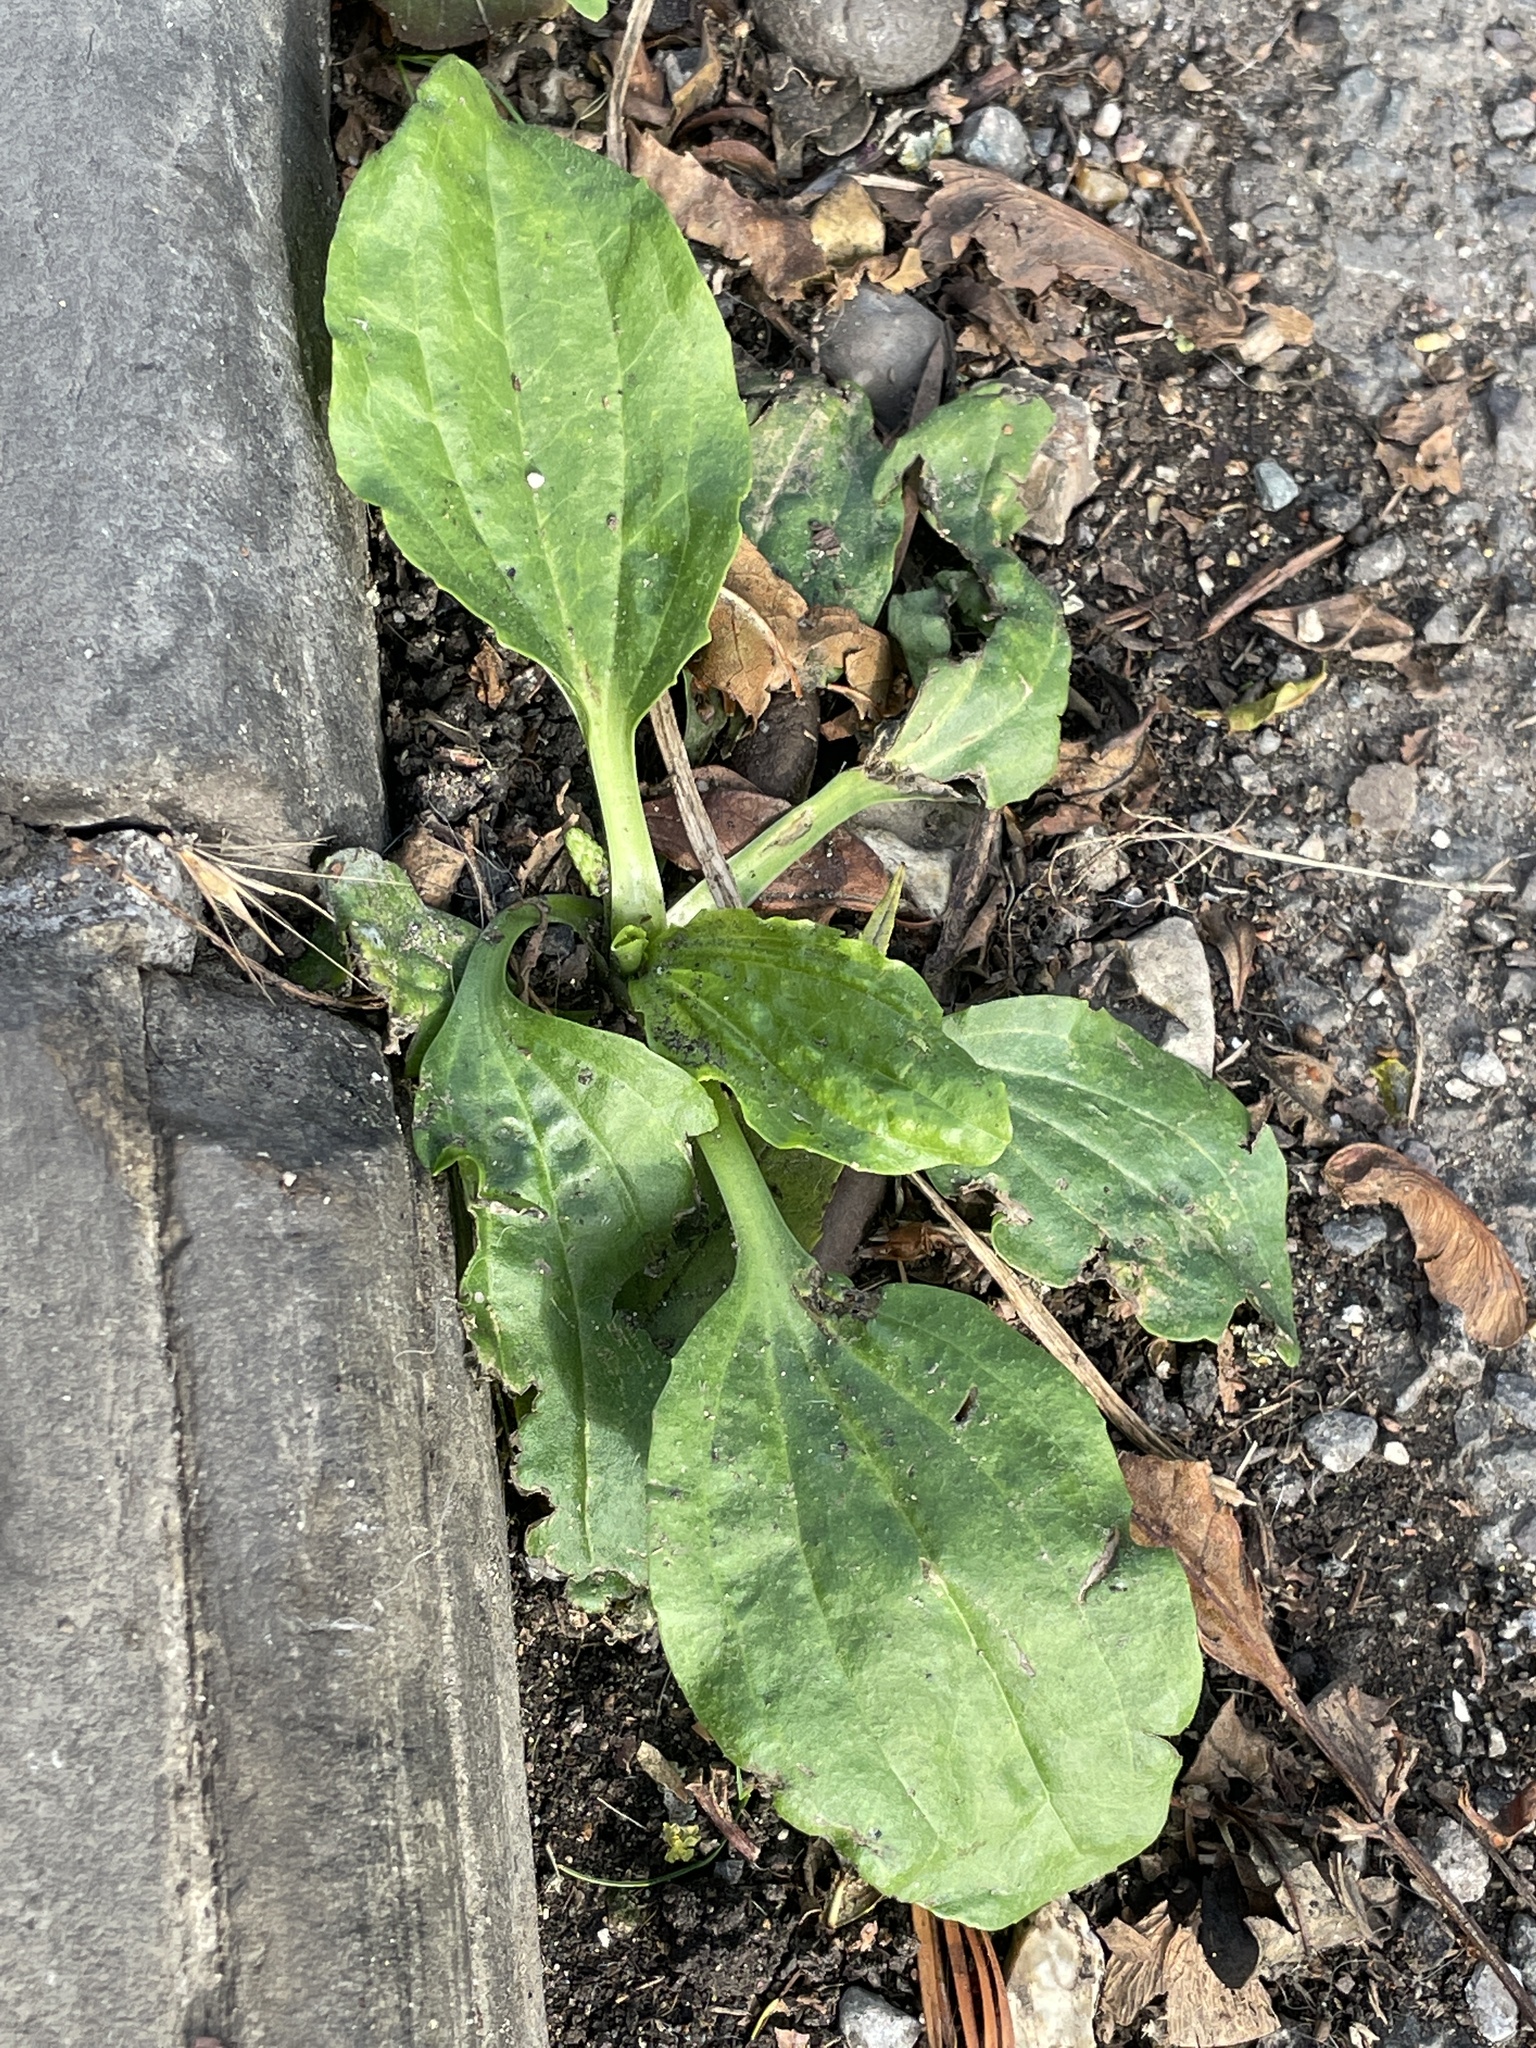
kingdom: Plantae
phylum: Tracheophyta
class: Magnoliopsida
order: Lamiales
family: Plantaginaceae
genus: Plantago
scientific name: Plantago major
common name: Common plantain
